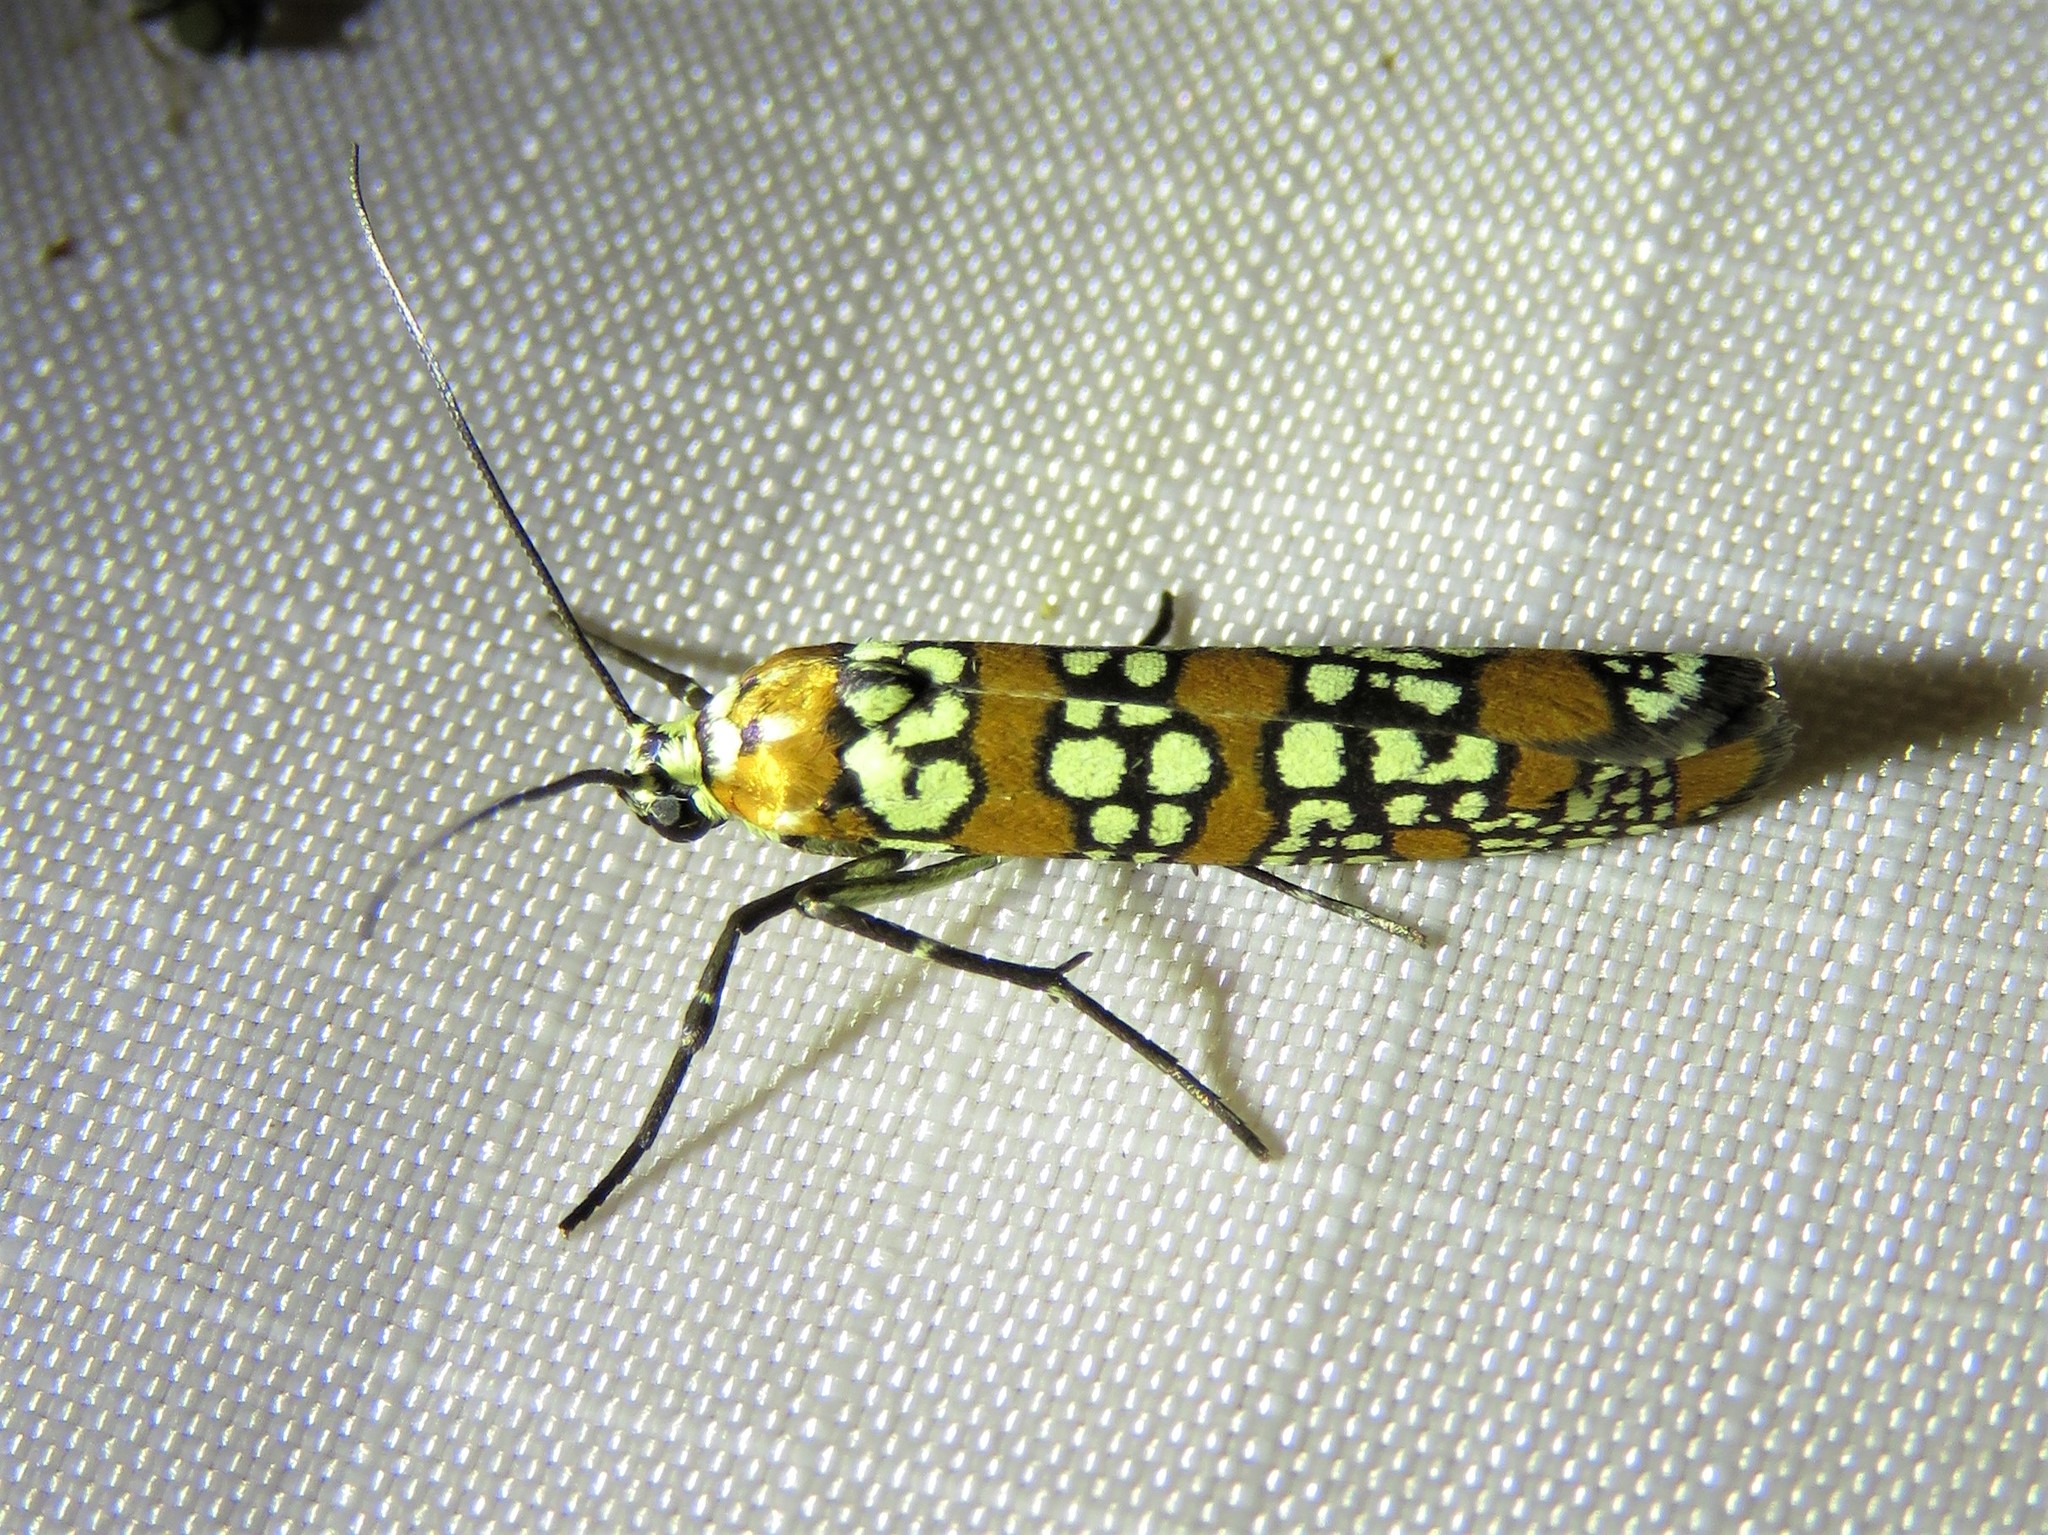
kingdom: Animalia
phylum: Arthropoda
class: Insecta
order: Lepidoptera
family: Attevidae
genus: Atteva
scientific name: Atteva punctella
